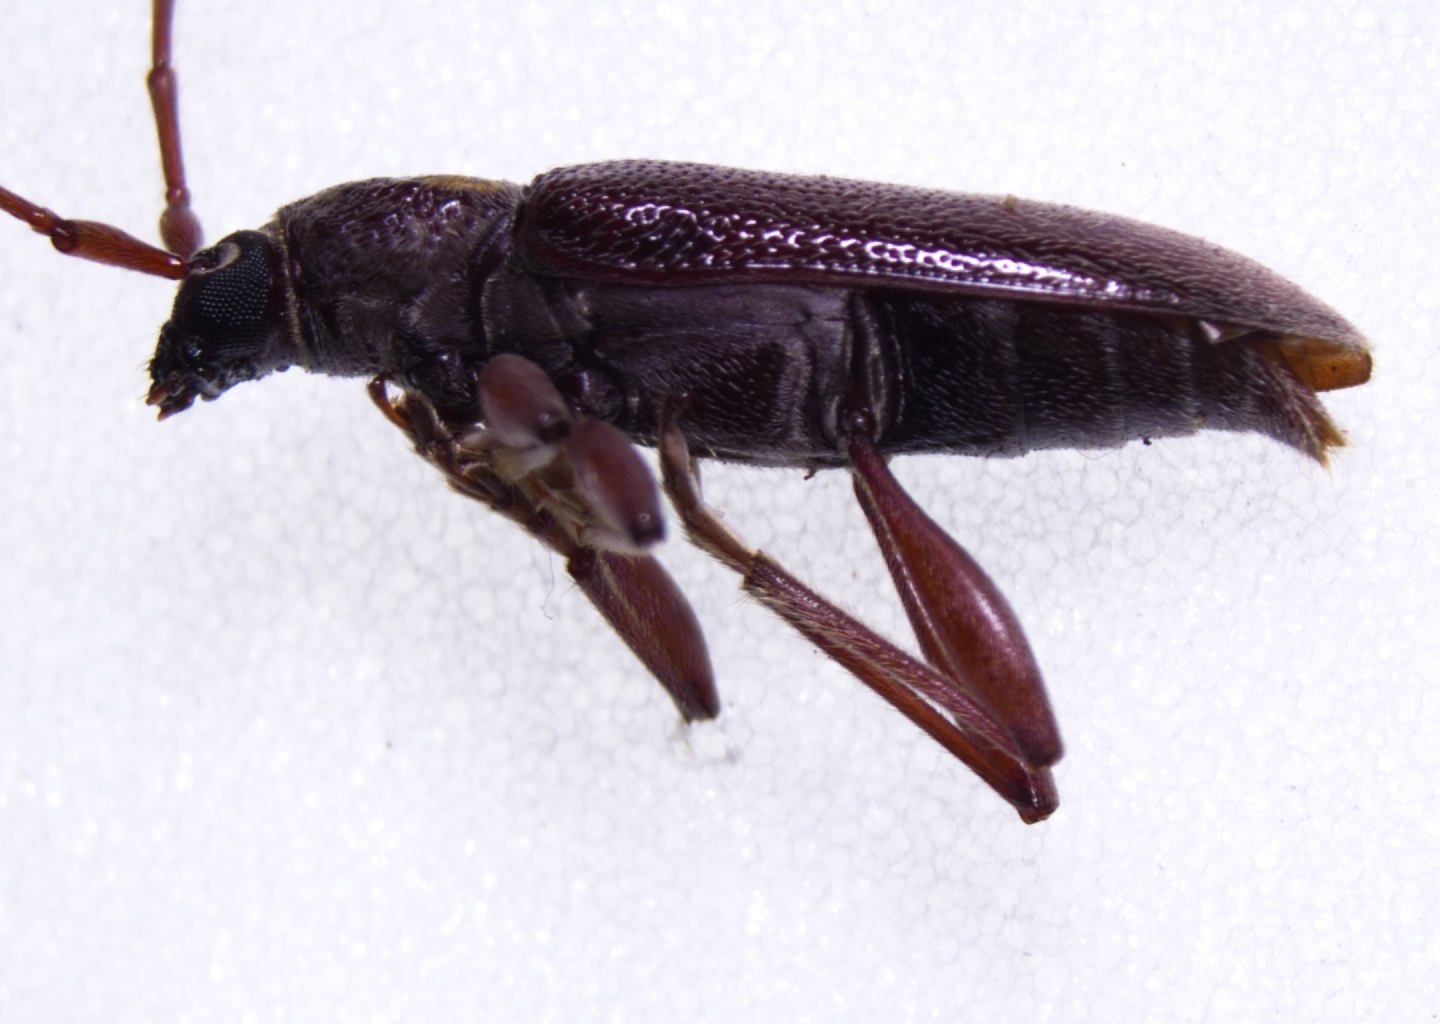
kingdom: Animalia
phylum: Arthropoda
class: Insecta
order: Coleoptera
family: Cerambycidae
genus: Ceresium
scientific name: Ceresium unicolor
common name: Citrus longhorn
